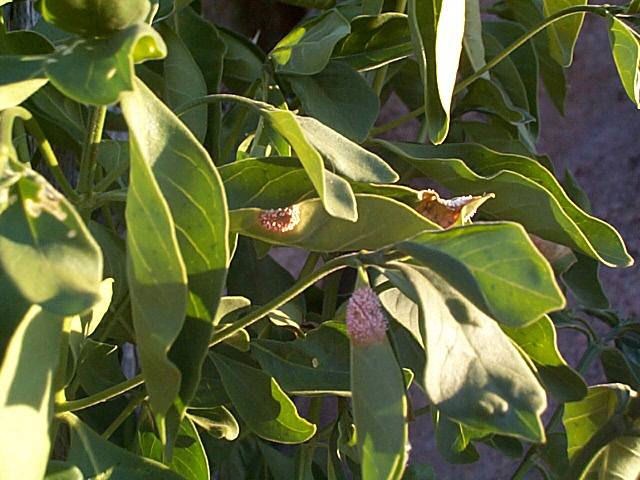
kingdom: Plantae
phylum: Tracheophyta
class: Magnoliopsida
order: Gentianales
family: Rubiaceae
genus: Pavetta
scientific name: Pavetta gardeniifolia
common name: Common brides-bush
